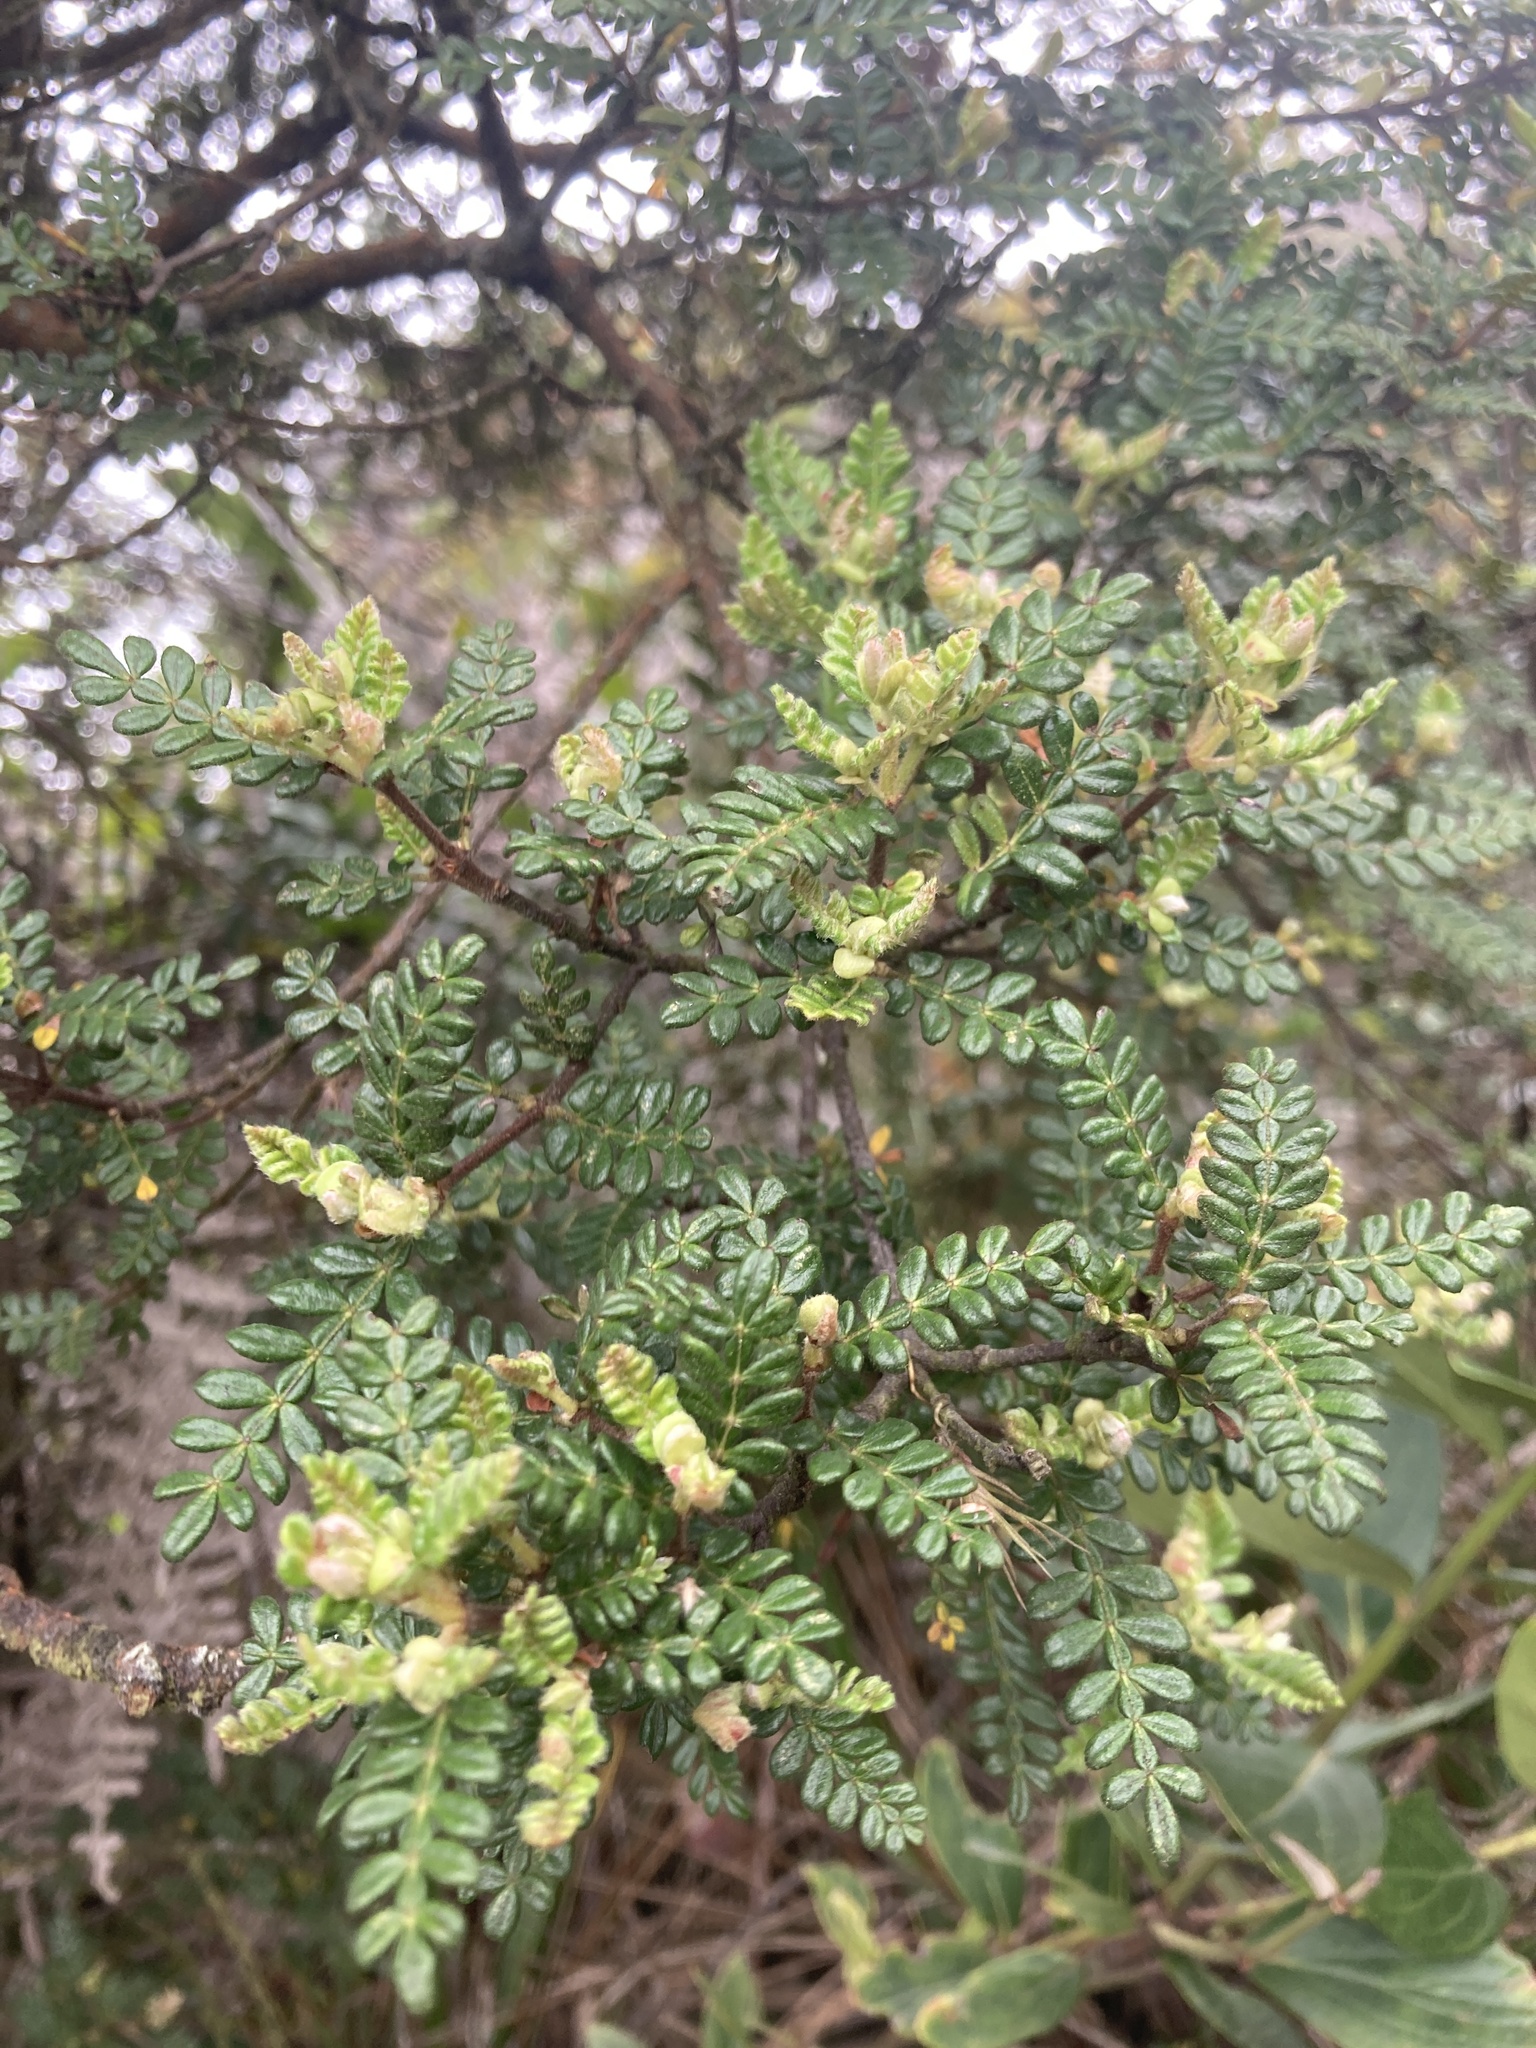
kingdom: Plantae
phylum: Tracheophyta
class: Magnoliopsida
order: Oxalidales
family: Cunoniaceae
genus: Weinmannia
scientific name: Weinmannia tomentosa
